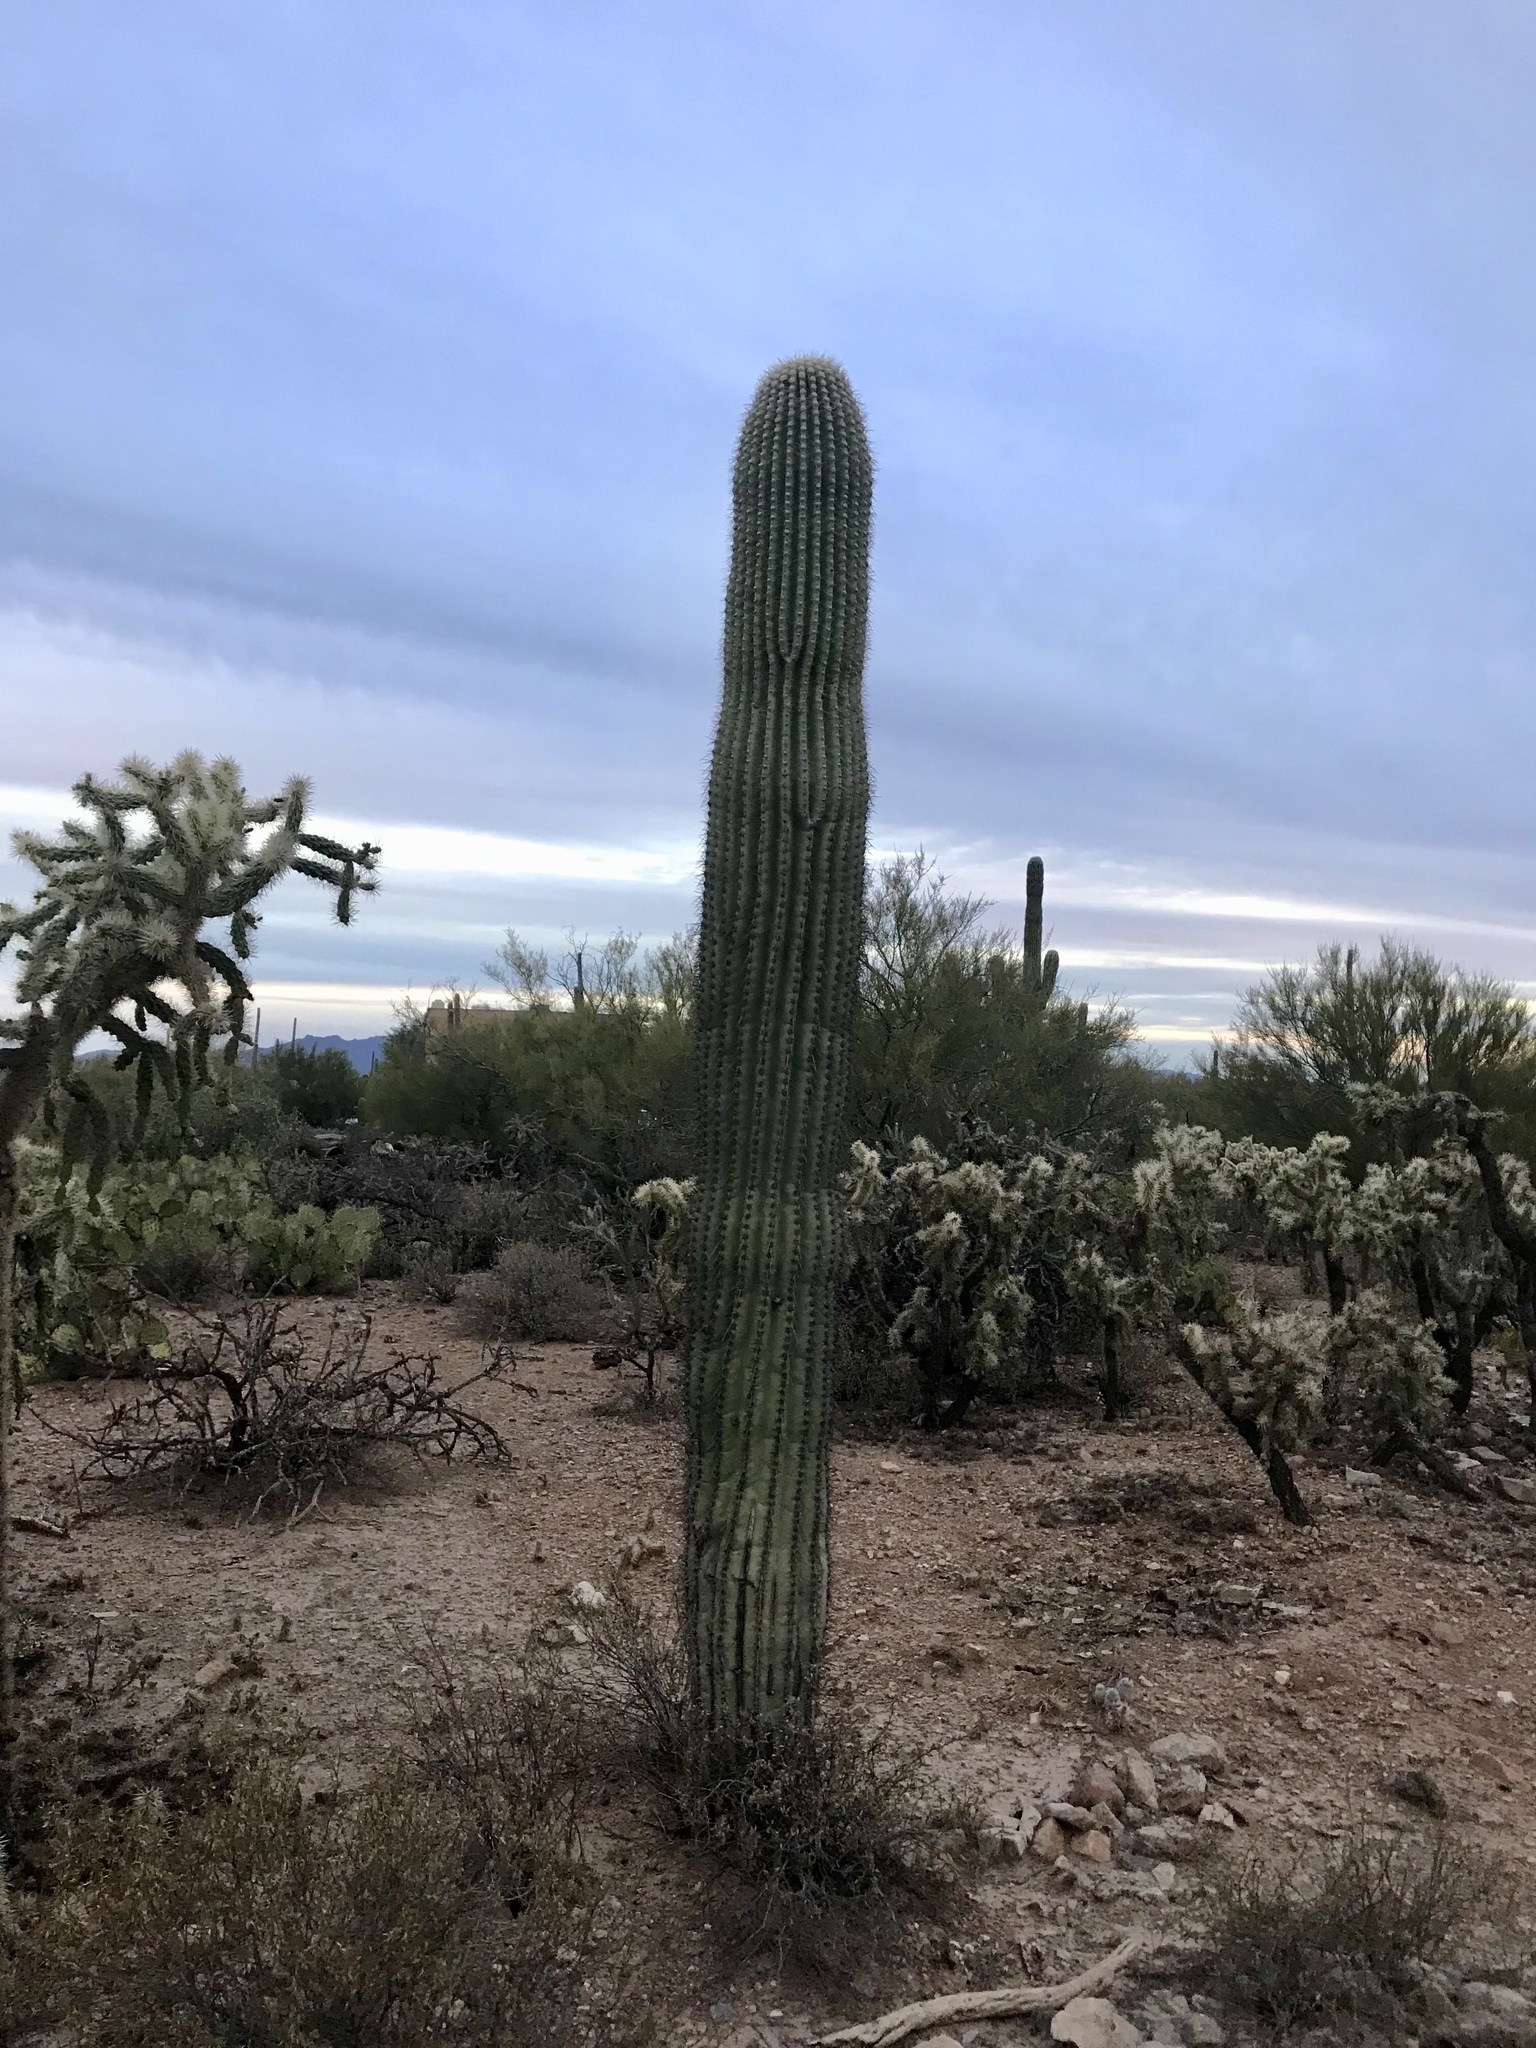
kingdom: Plantae
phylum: Tracheophyta
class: Magnoliopsida
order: Caryophyllales
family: Cactaceae
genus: Carnegiea
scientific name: Carnegiea gigantea
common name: Saguaro
